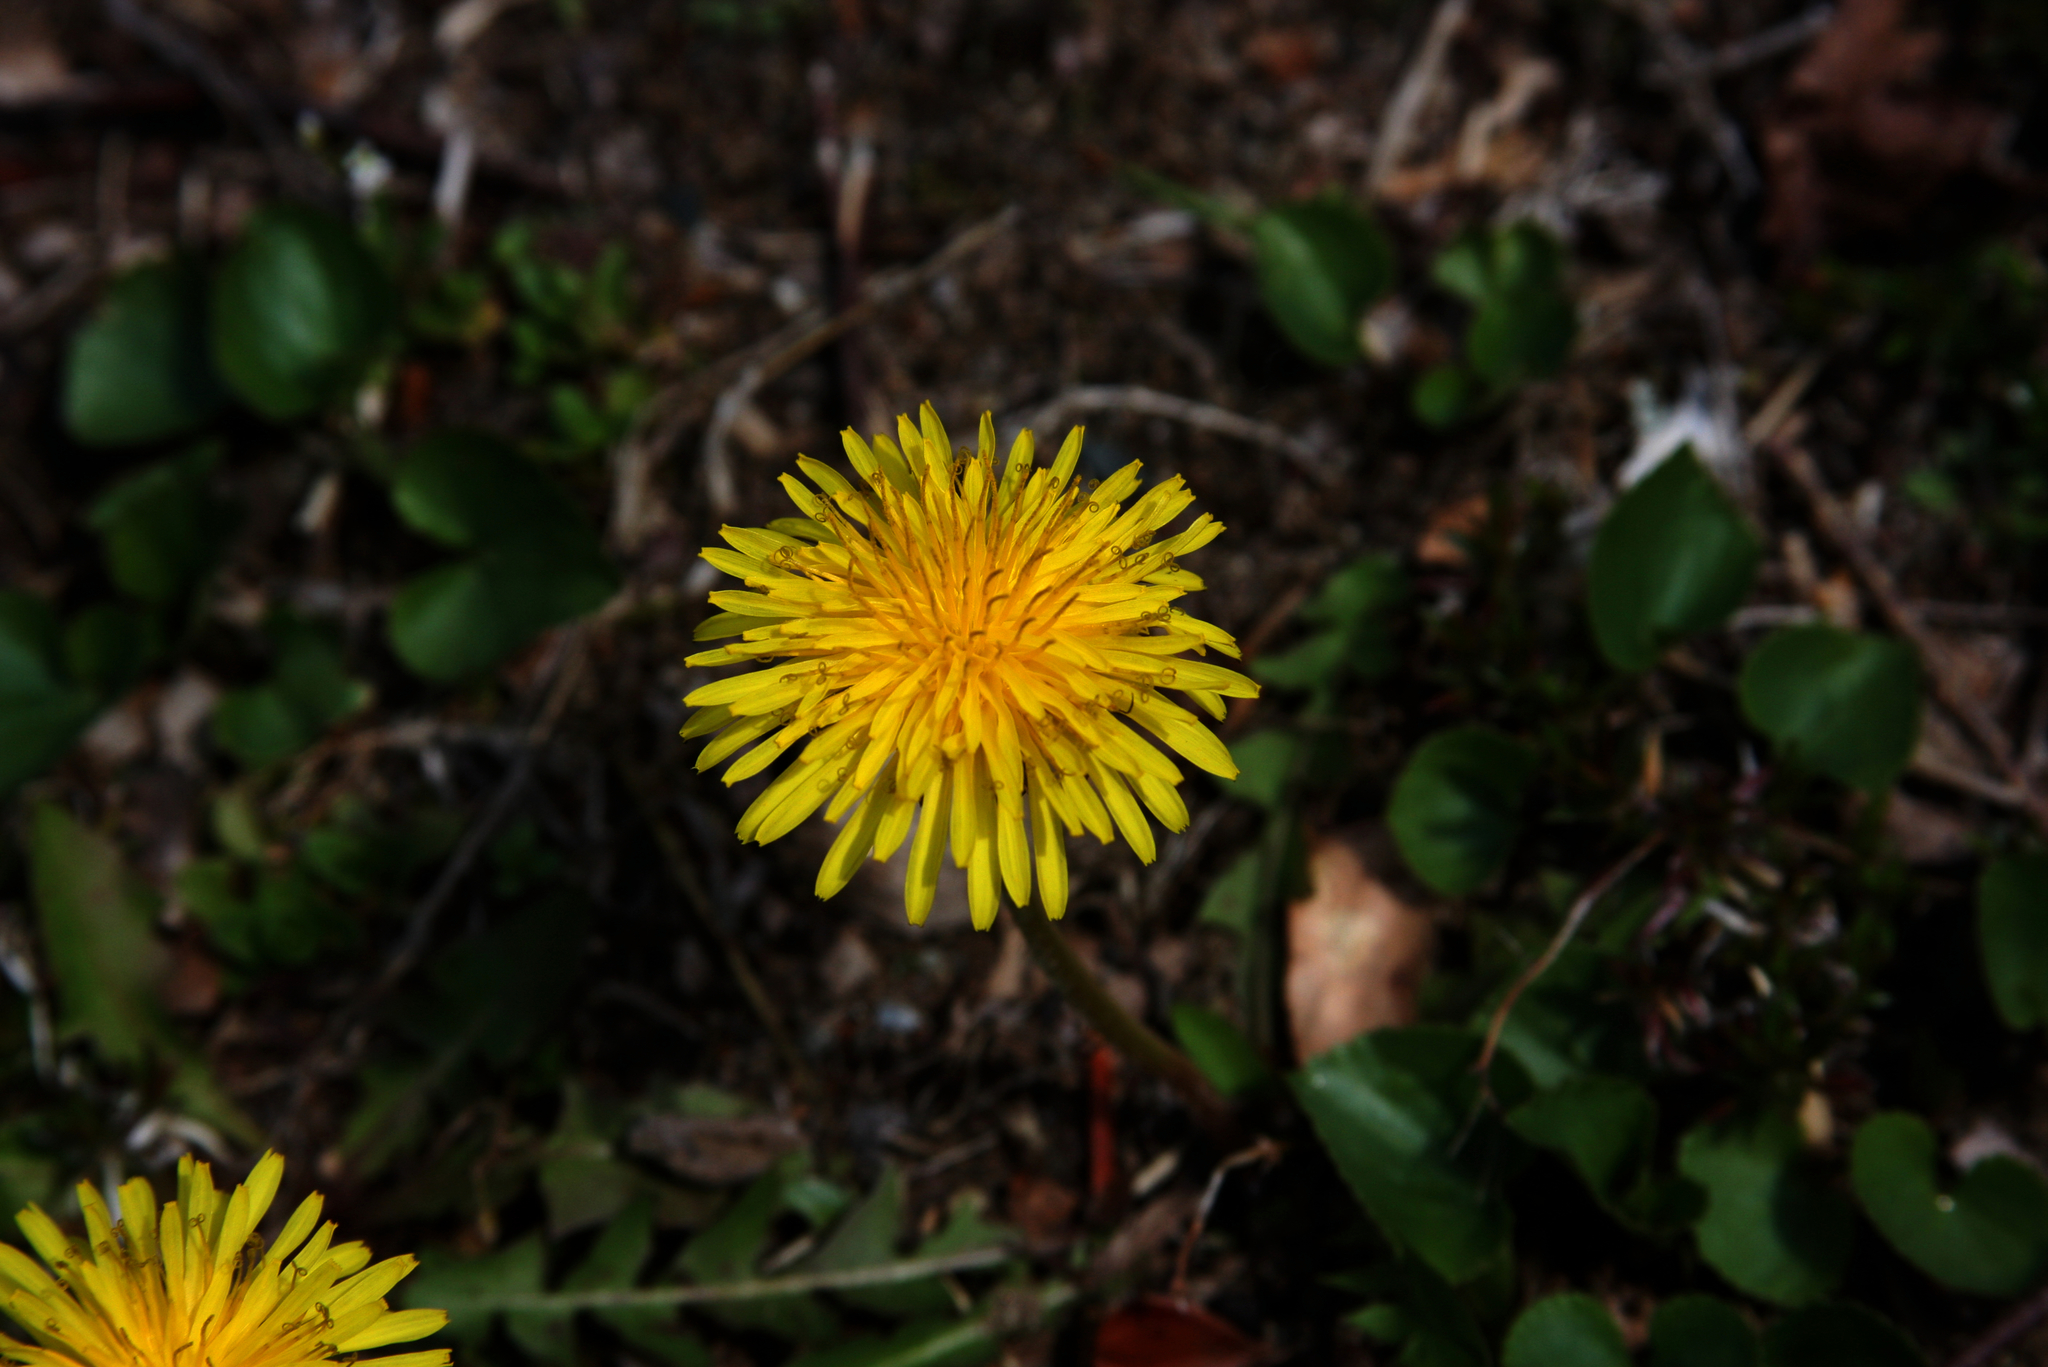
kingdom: Plantae
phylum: Tracheophyta
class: Magnoliopsida
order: Asterales
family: Asteraceae
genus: Taraxacum
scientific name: Taraxacum officinale
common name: Common dandelion
